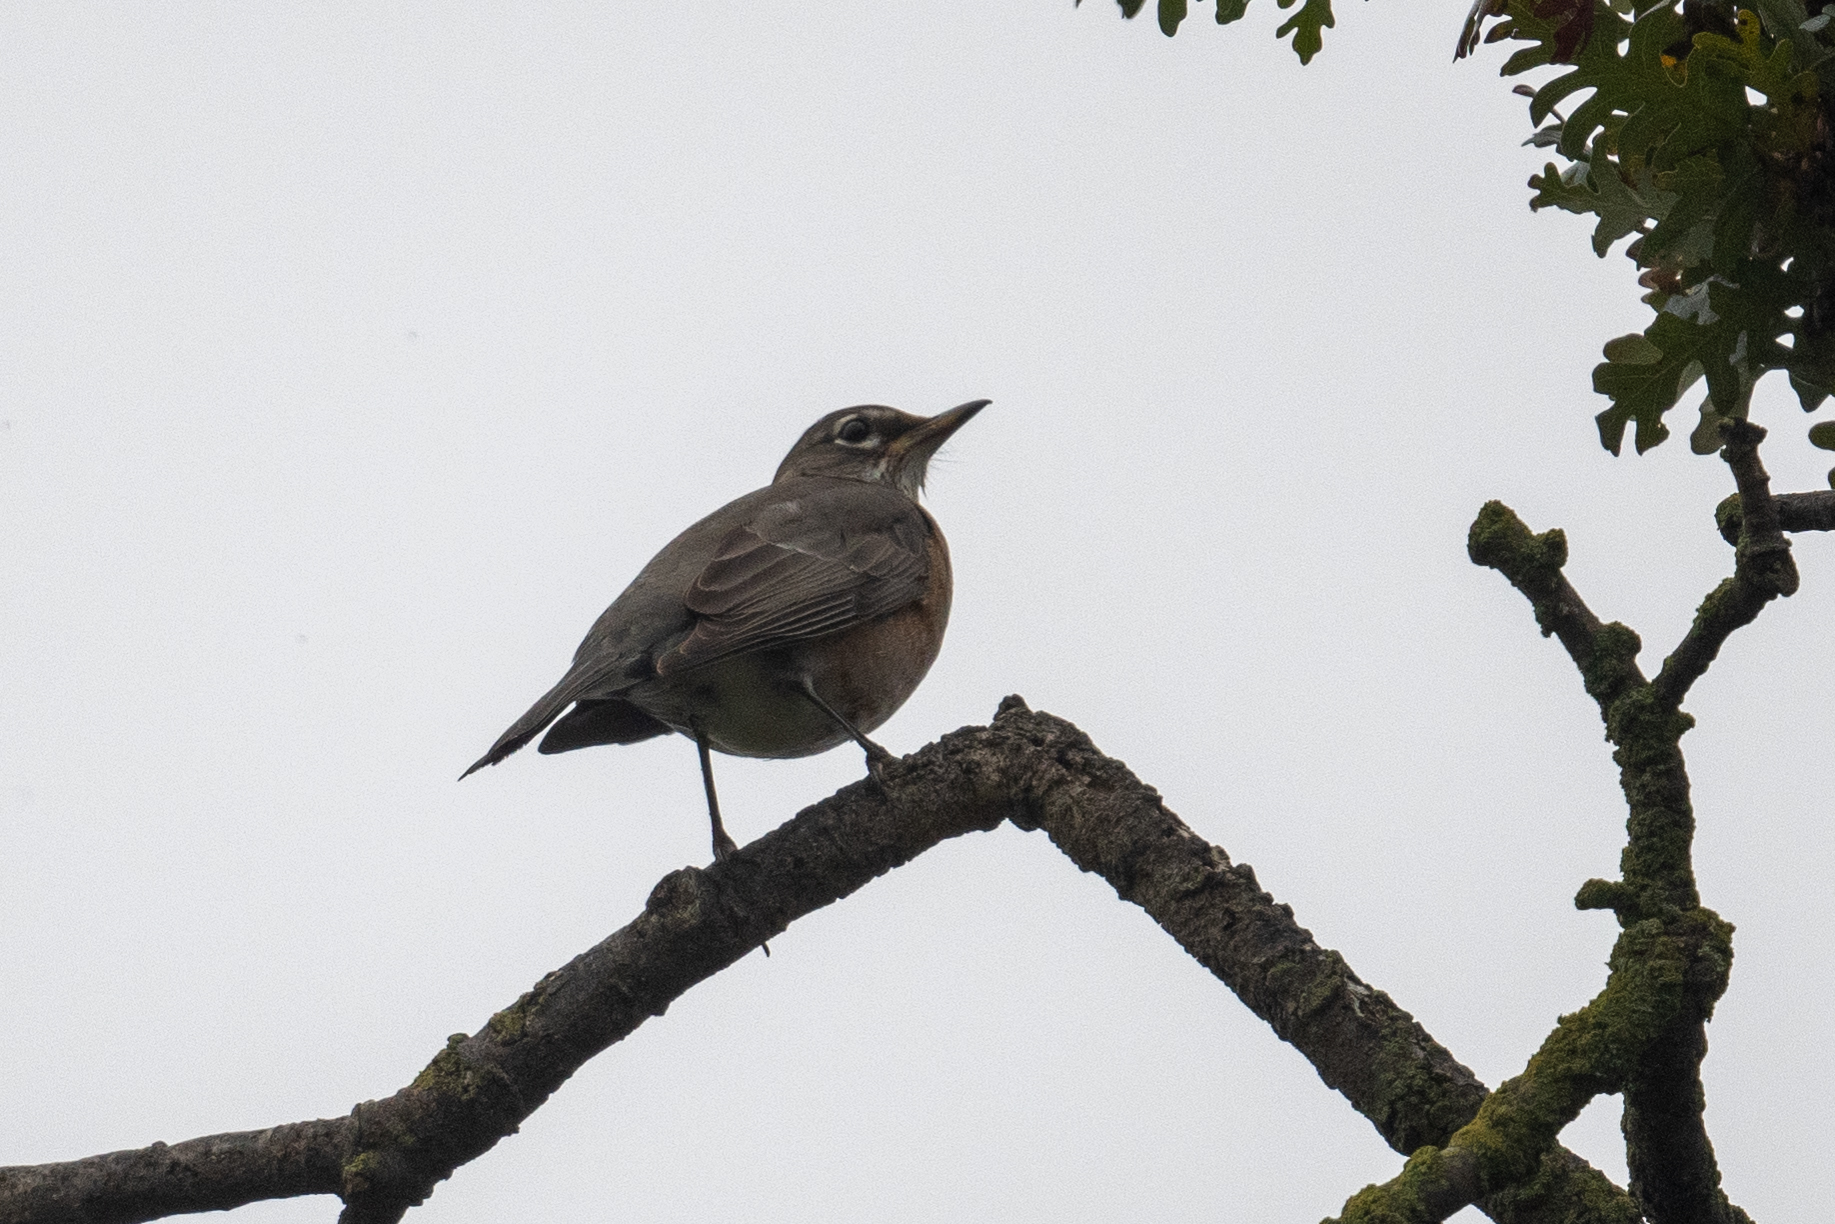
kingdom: Animalia
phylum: Chordata
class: Aves
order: Passeriformes
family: Turdidae
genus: Turdus
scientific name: Turdus migratorius
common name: American robin
